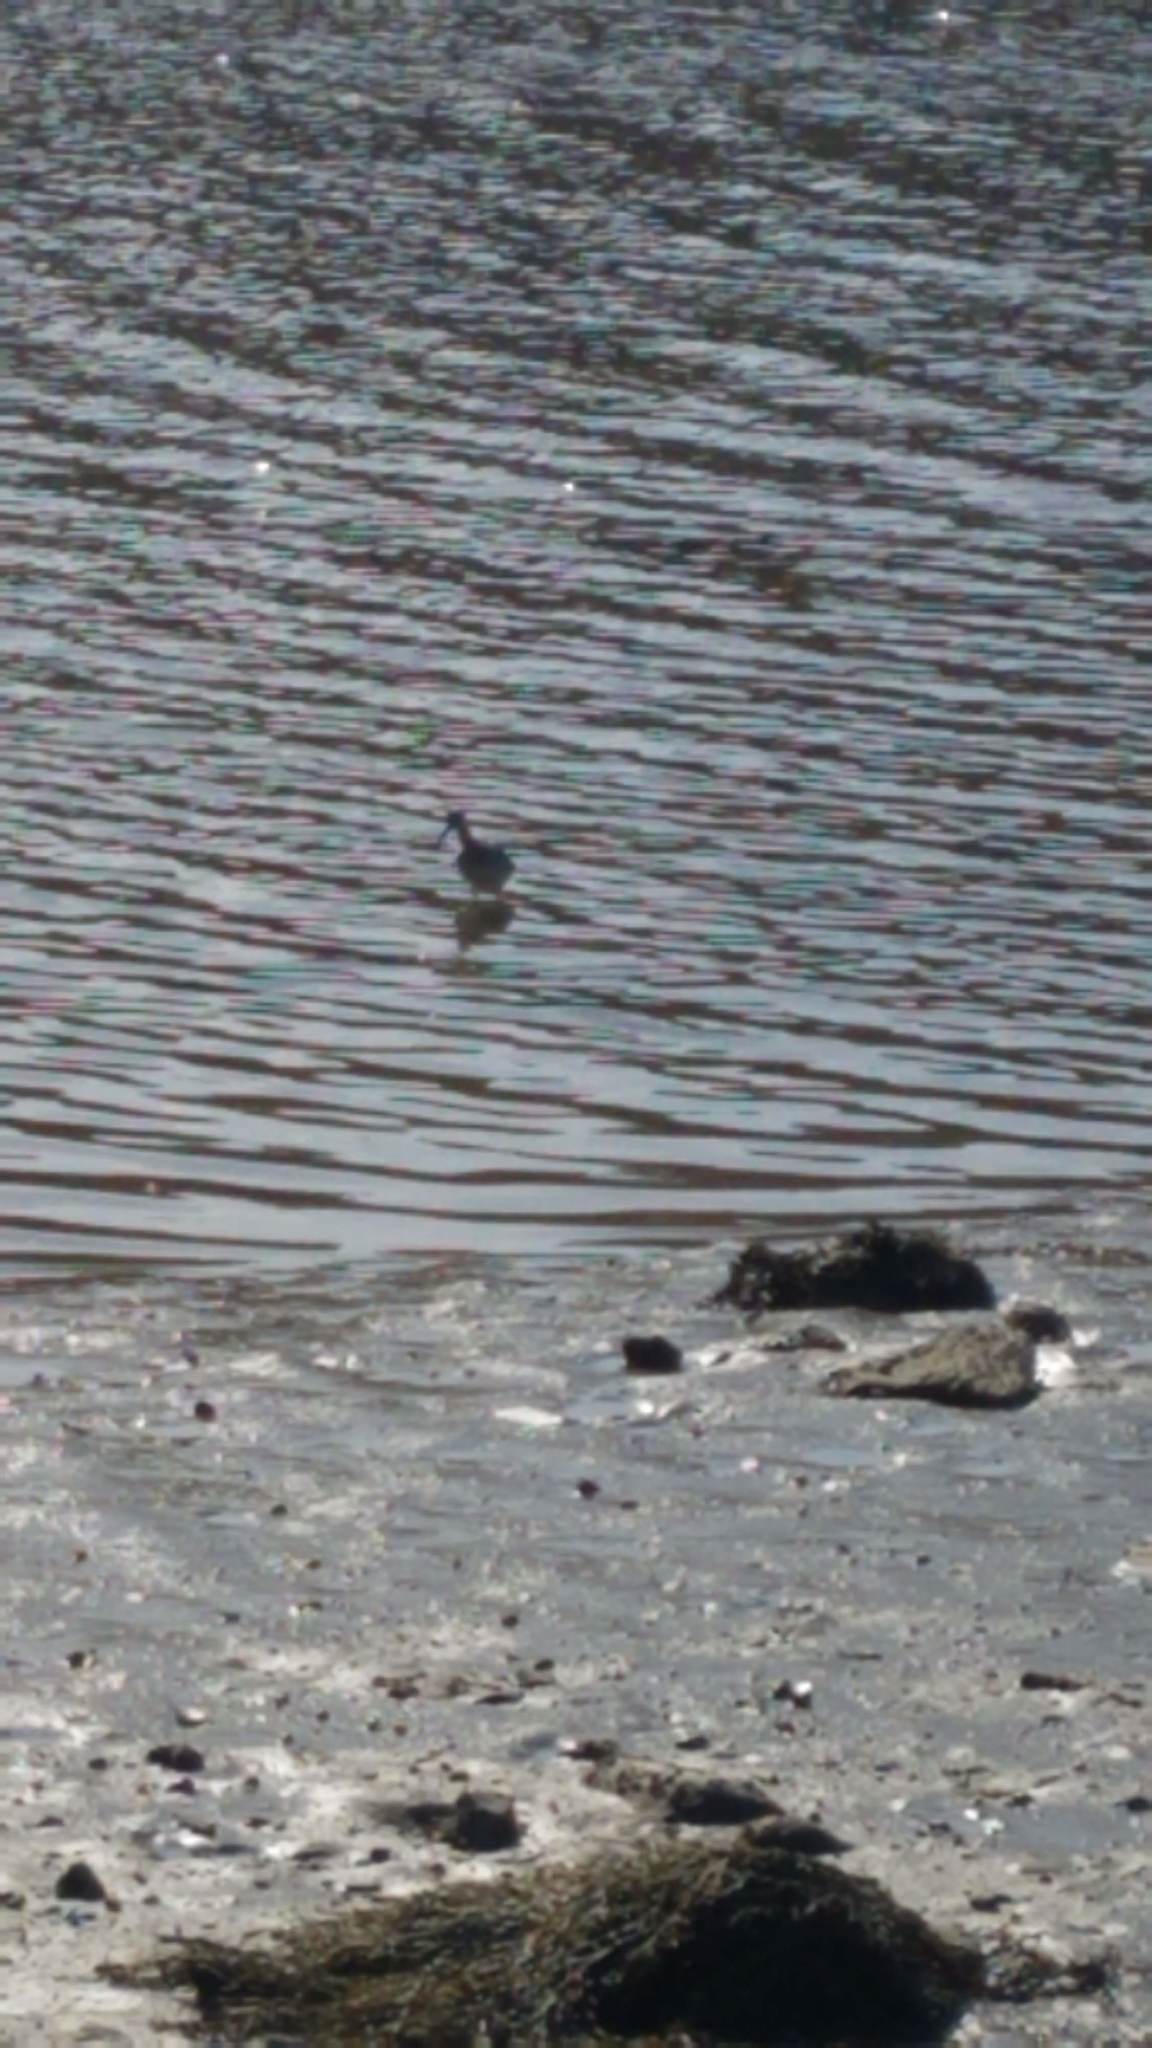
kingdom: Animalia
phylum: Chordata
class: Aves
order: Charadriiformes
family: Scolopacidae
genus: Tringa
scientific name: Tringa melanoleuca
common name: Greater yellowlegs
